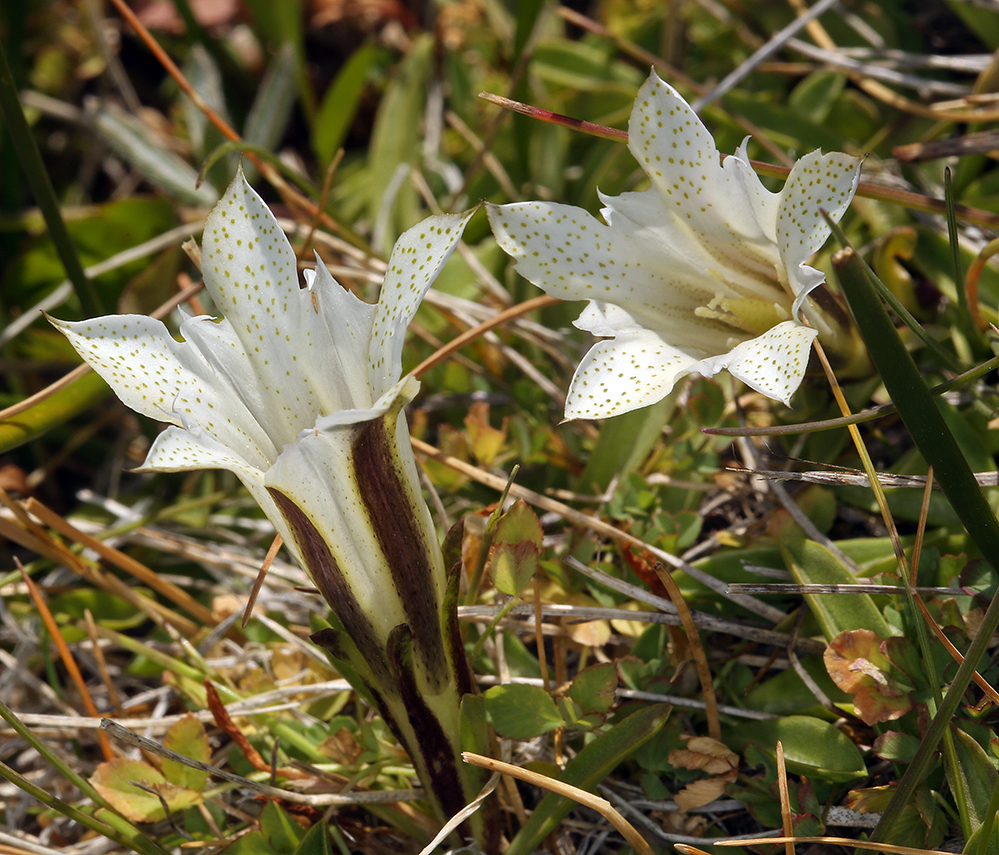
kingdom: Plantae
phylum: Tracheophyta
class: Magnoliopsida
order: Gentianales
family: Gentianaceae
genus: Gentiana
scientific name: Gentiana newberryi
